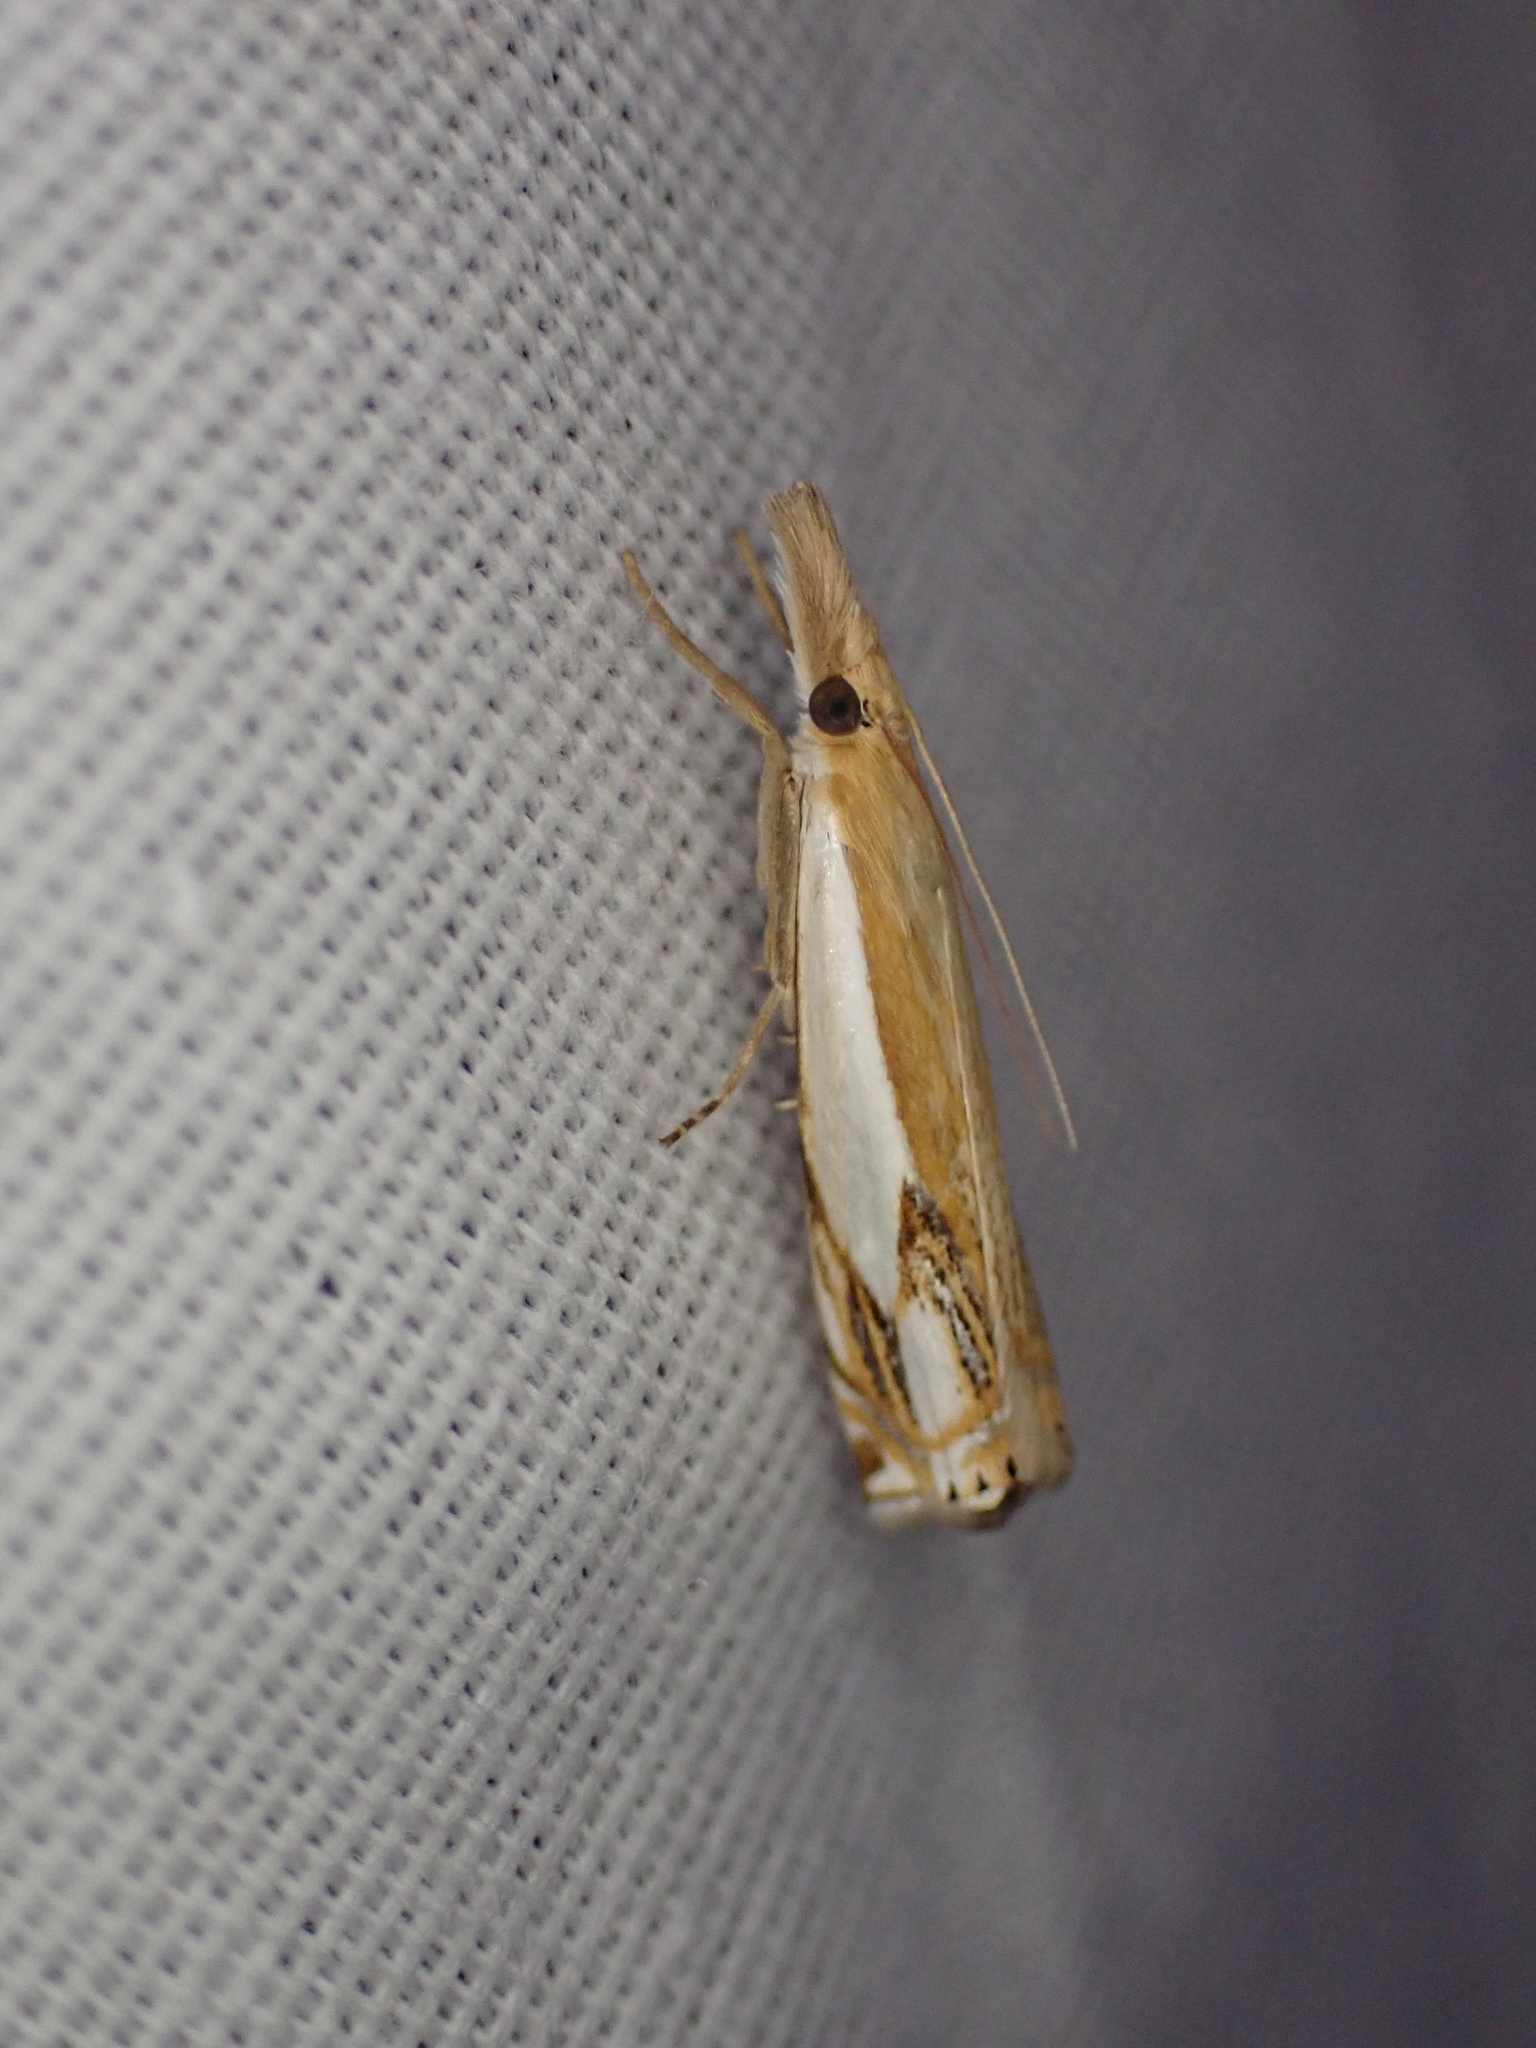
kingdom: Animalia
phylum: Arthropoda
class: Insecta
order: Lepidoptera
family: Crambidae
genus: Crambus
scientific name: Crambus agitatellus
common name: Double-banded grass-veneer
